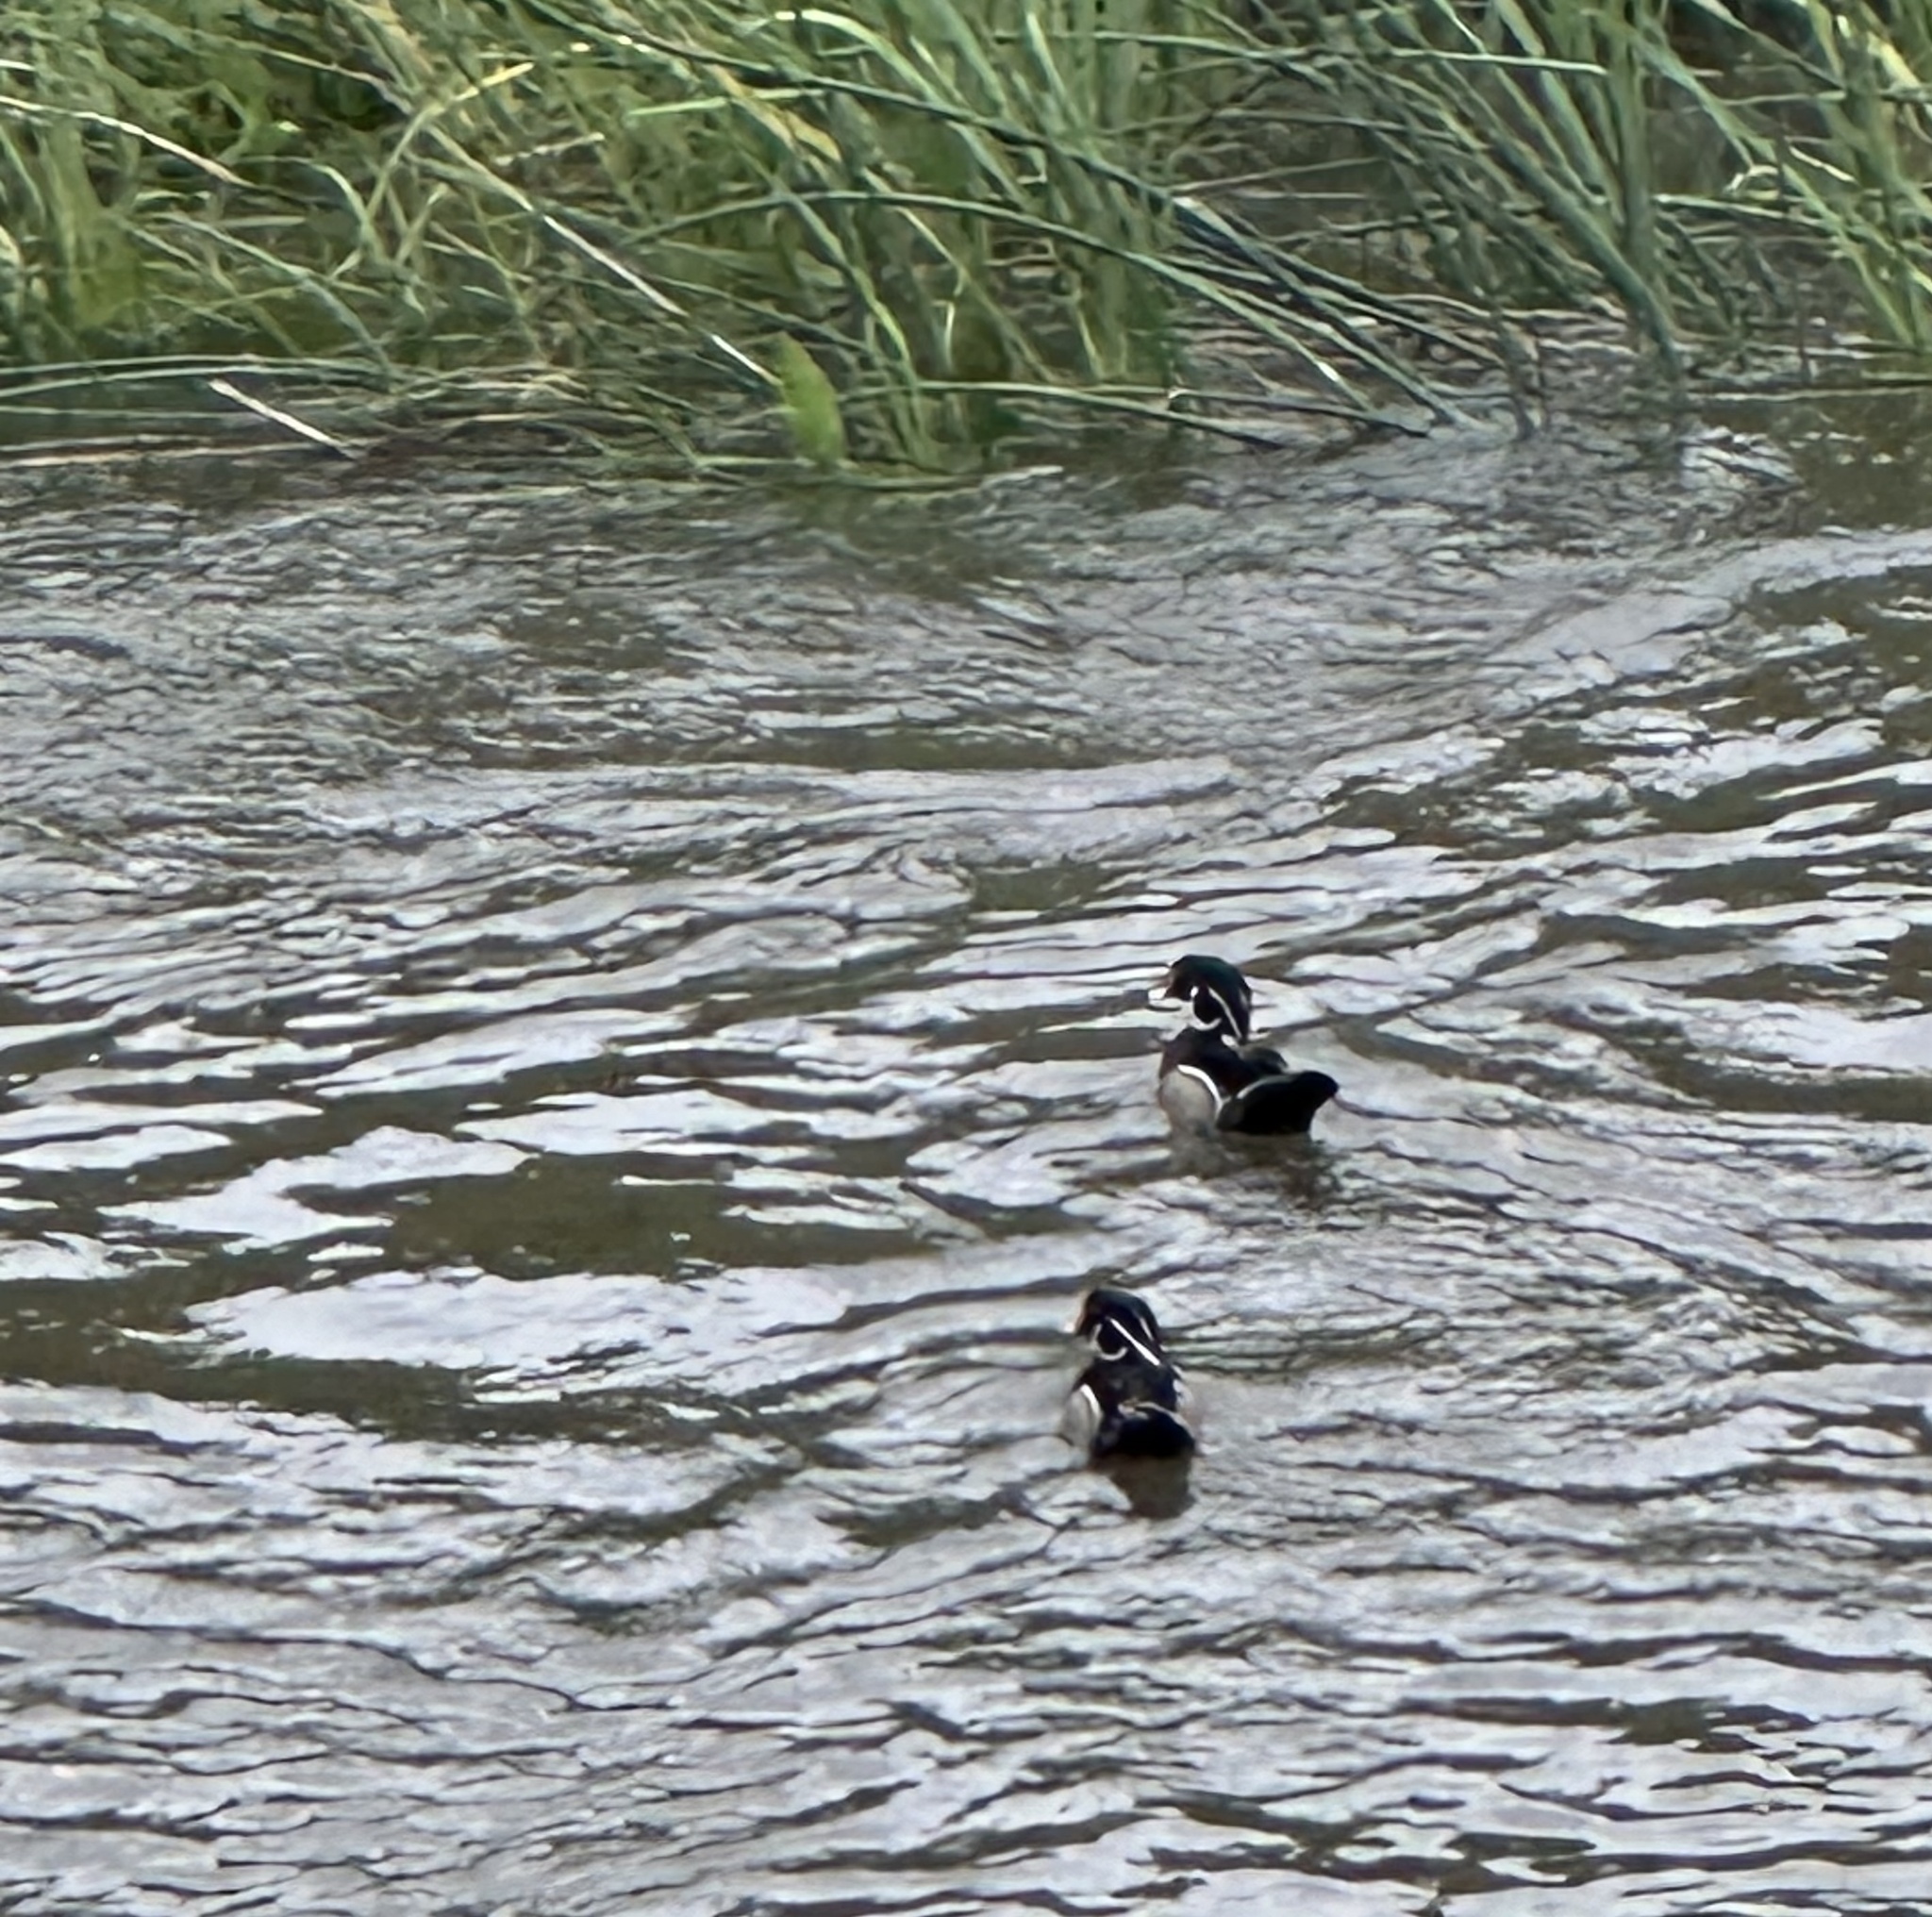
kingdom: Animalia
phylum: Chordata
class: Aves
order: Anseriformes
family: Anatidae
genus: Aix
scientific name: Aix sponsa
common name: Wood duck
